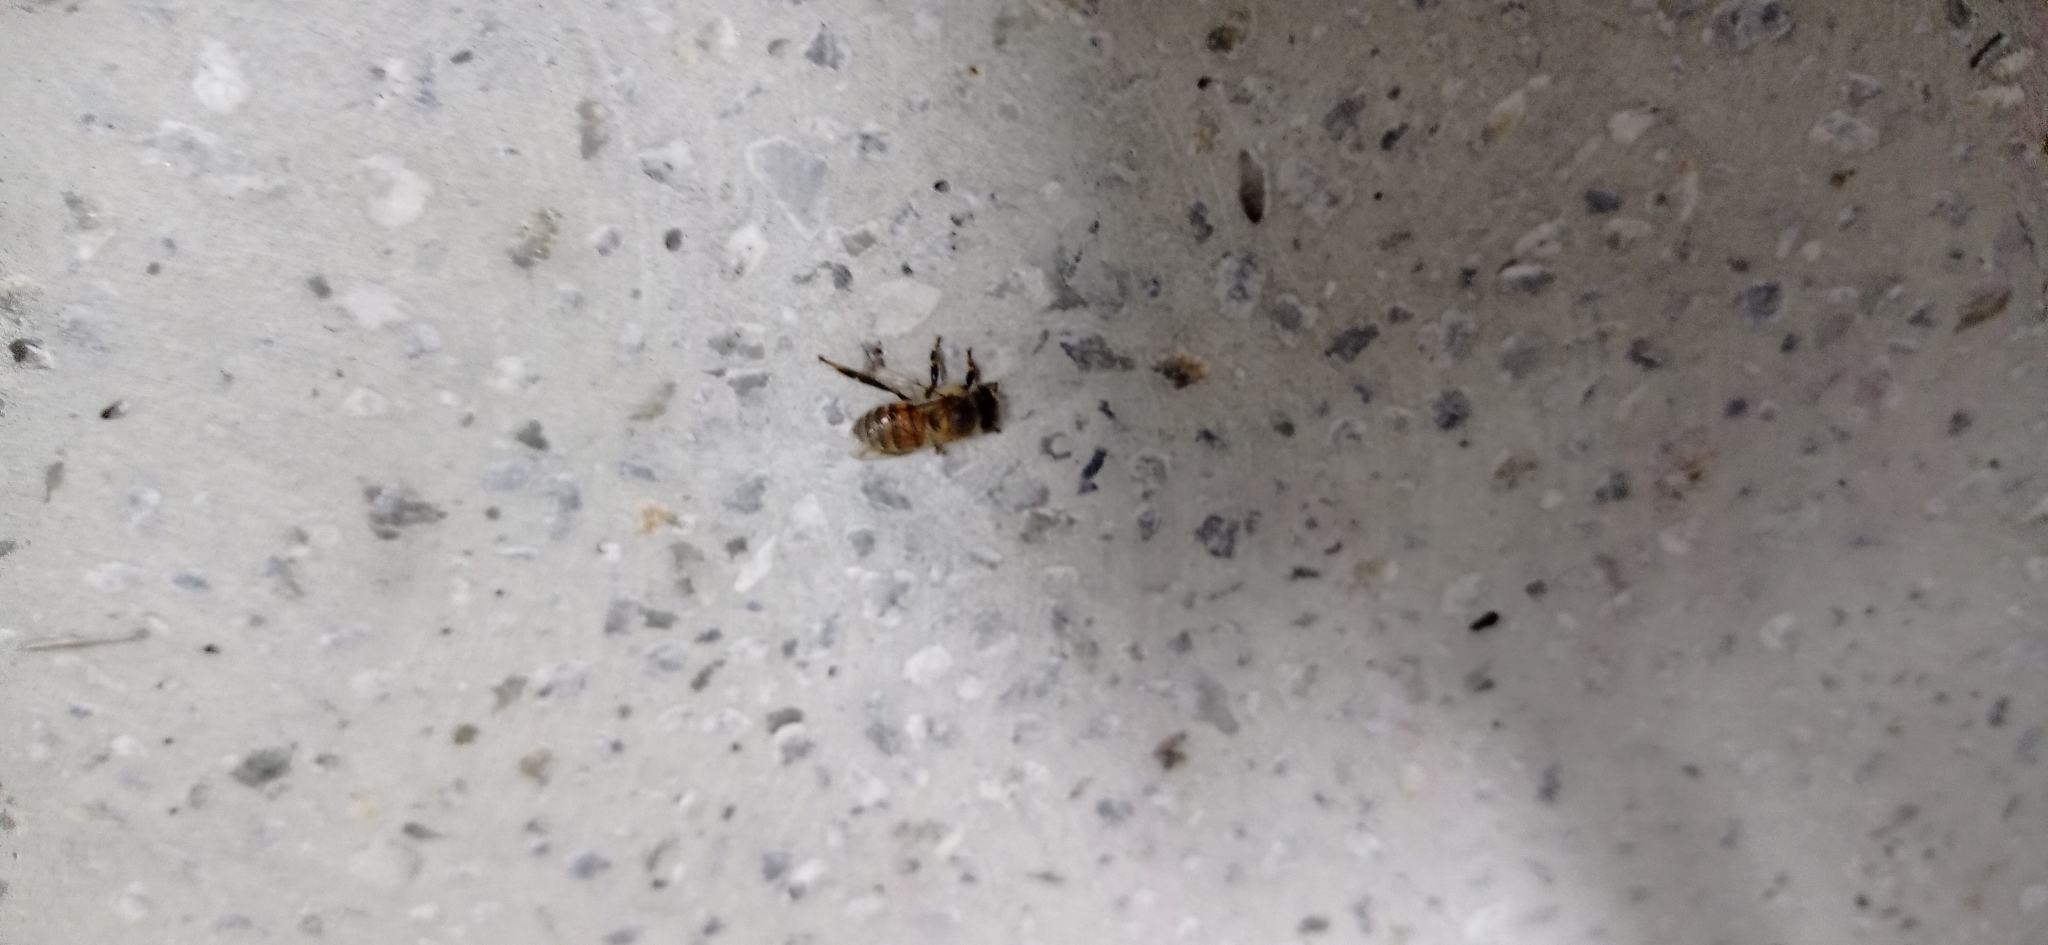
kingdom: Animalia
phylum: Arthropoda
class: Insecta
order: Hymenoptera
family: Apidae
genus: Apis
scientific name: Apis mellifera
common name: Honey bee
